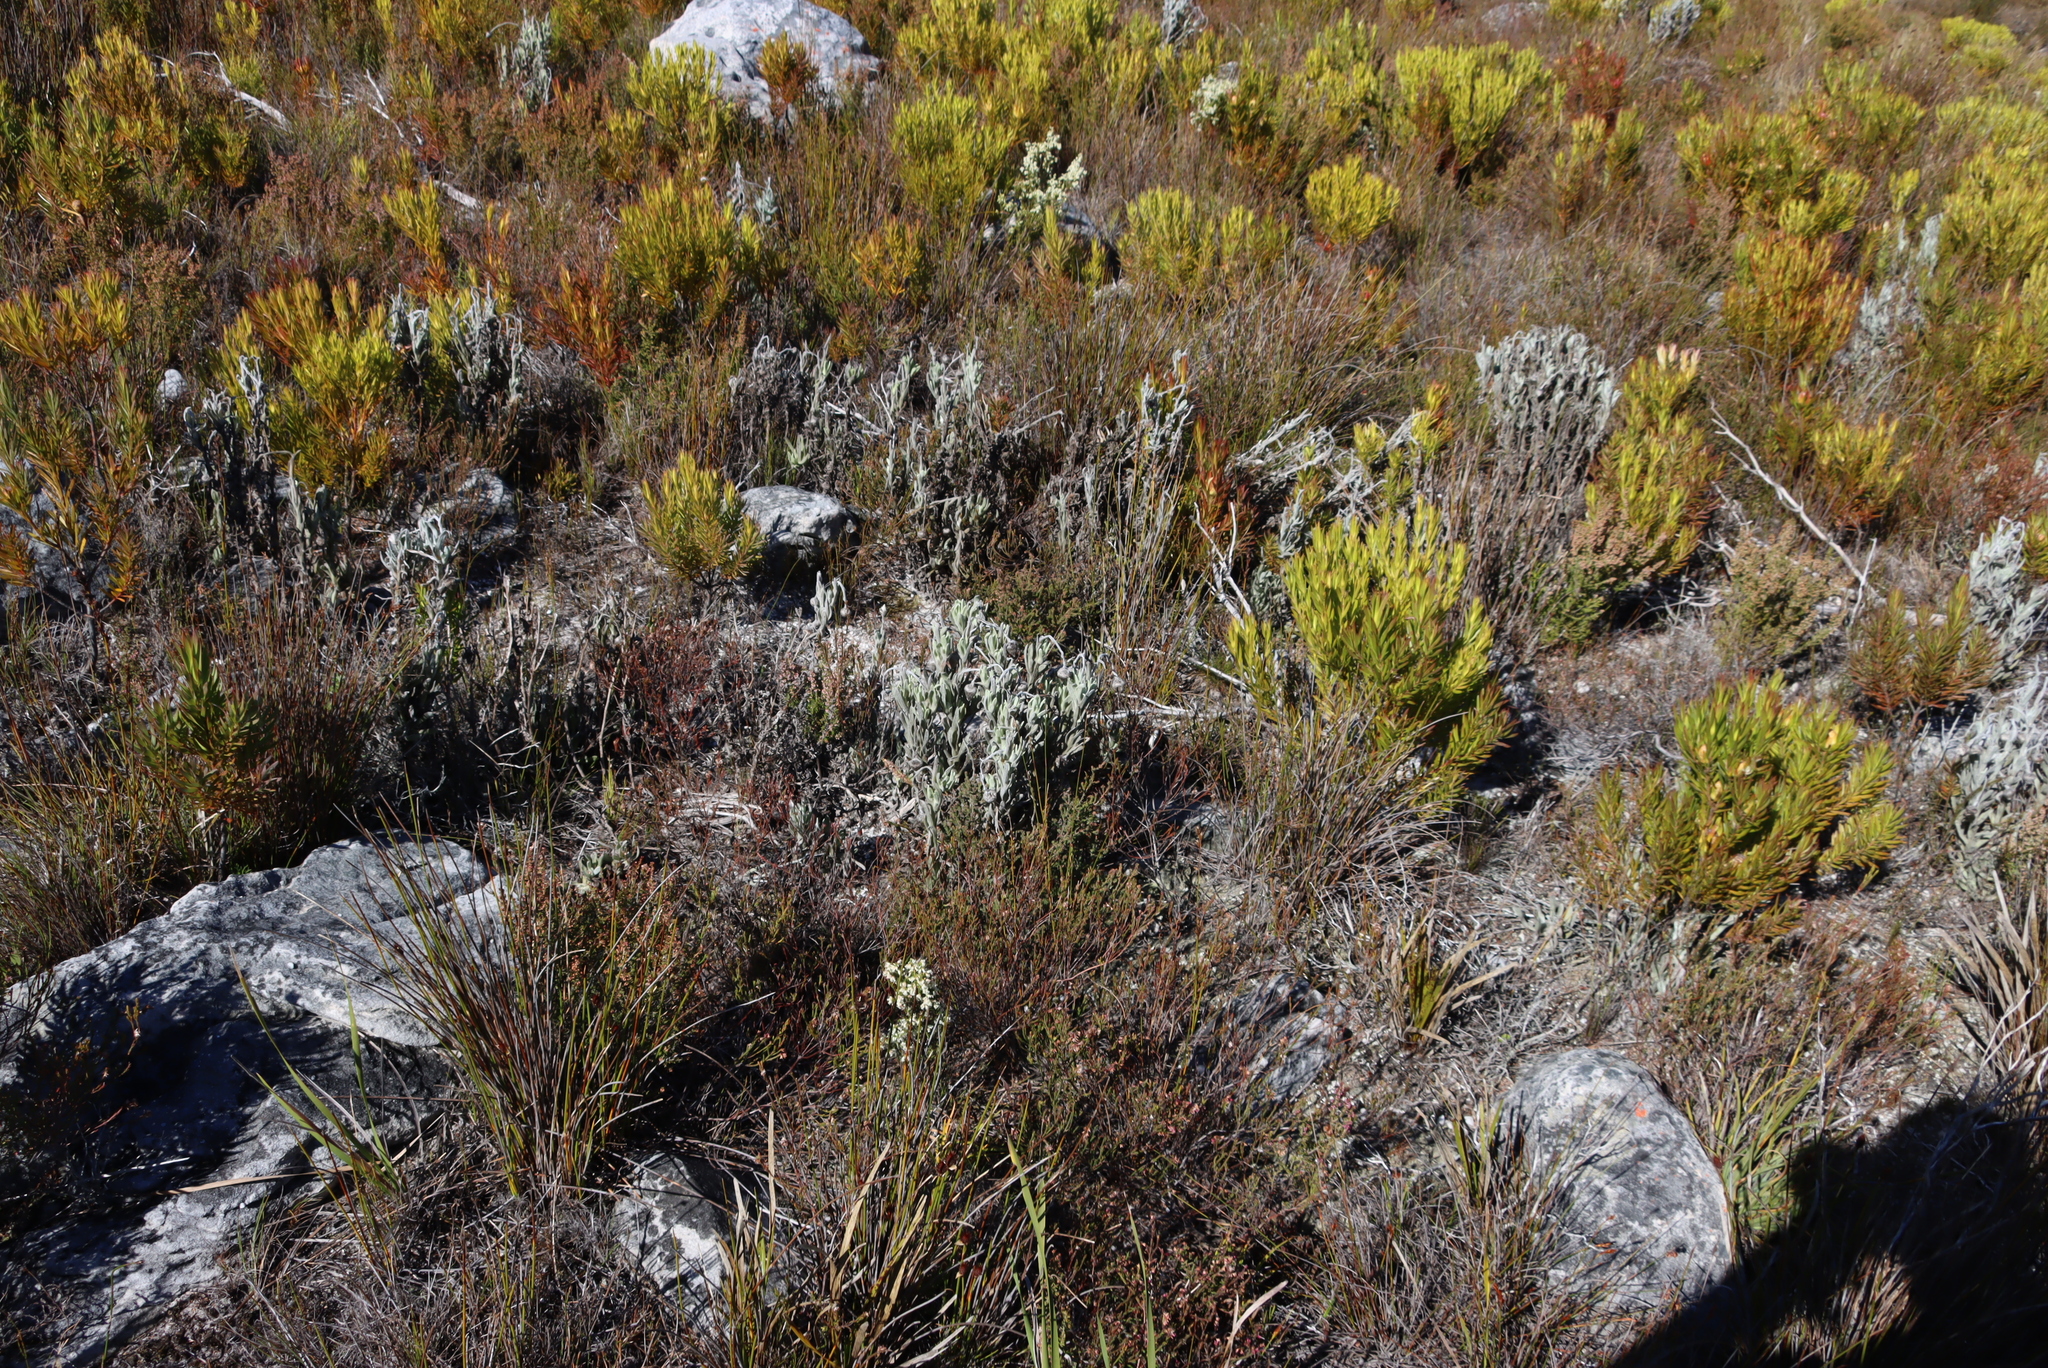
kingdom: Plantae
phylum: Tracheophyta
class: Magnoliopsida
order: Asterales
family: Asteraceae
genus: Syncarpha
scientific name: Syncarpha vestita
